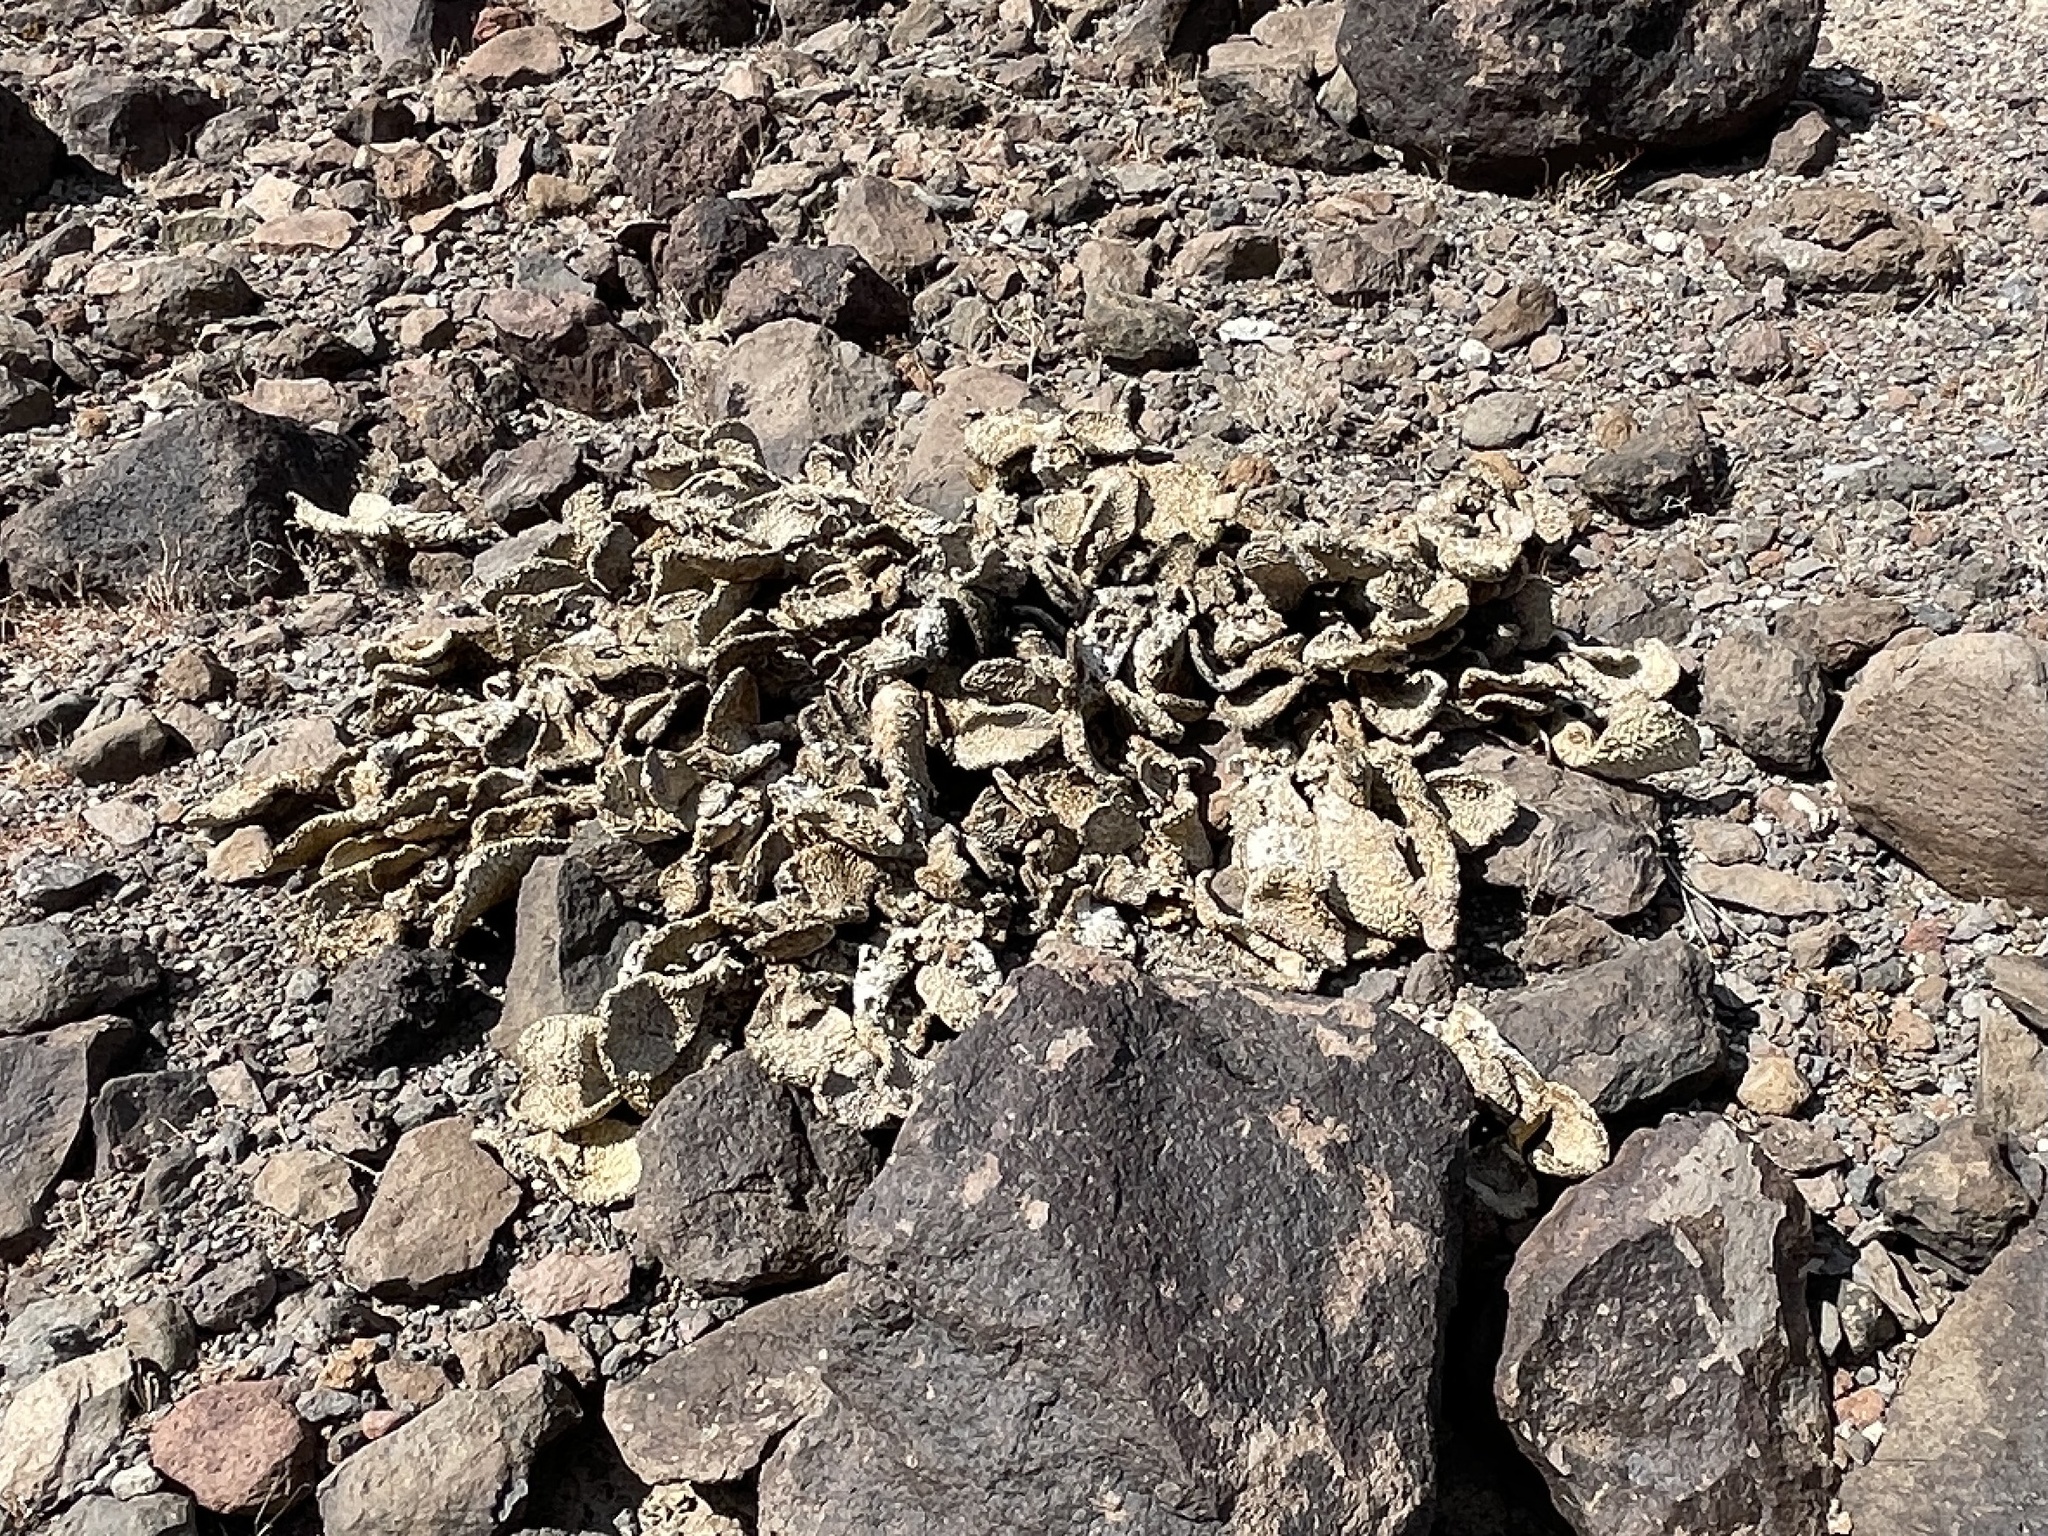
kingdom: Plantae
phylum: Tracheophyta
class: Magnoliopsida
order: Caryophyllales
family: Cactaceae
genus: Opuntia
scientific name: Opuntia basilaris
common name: Beavertail prickly-pear
